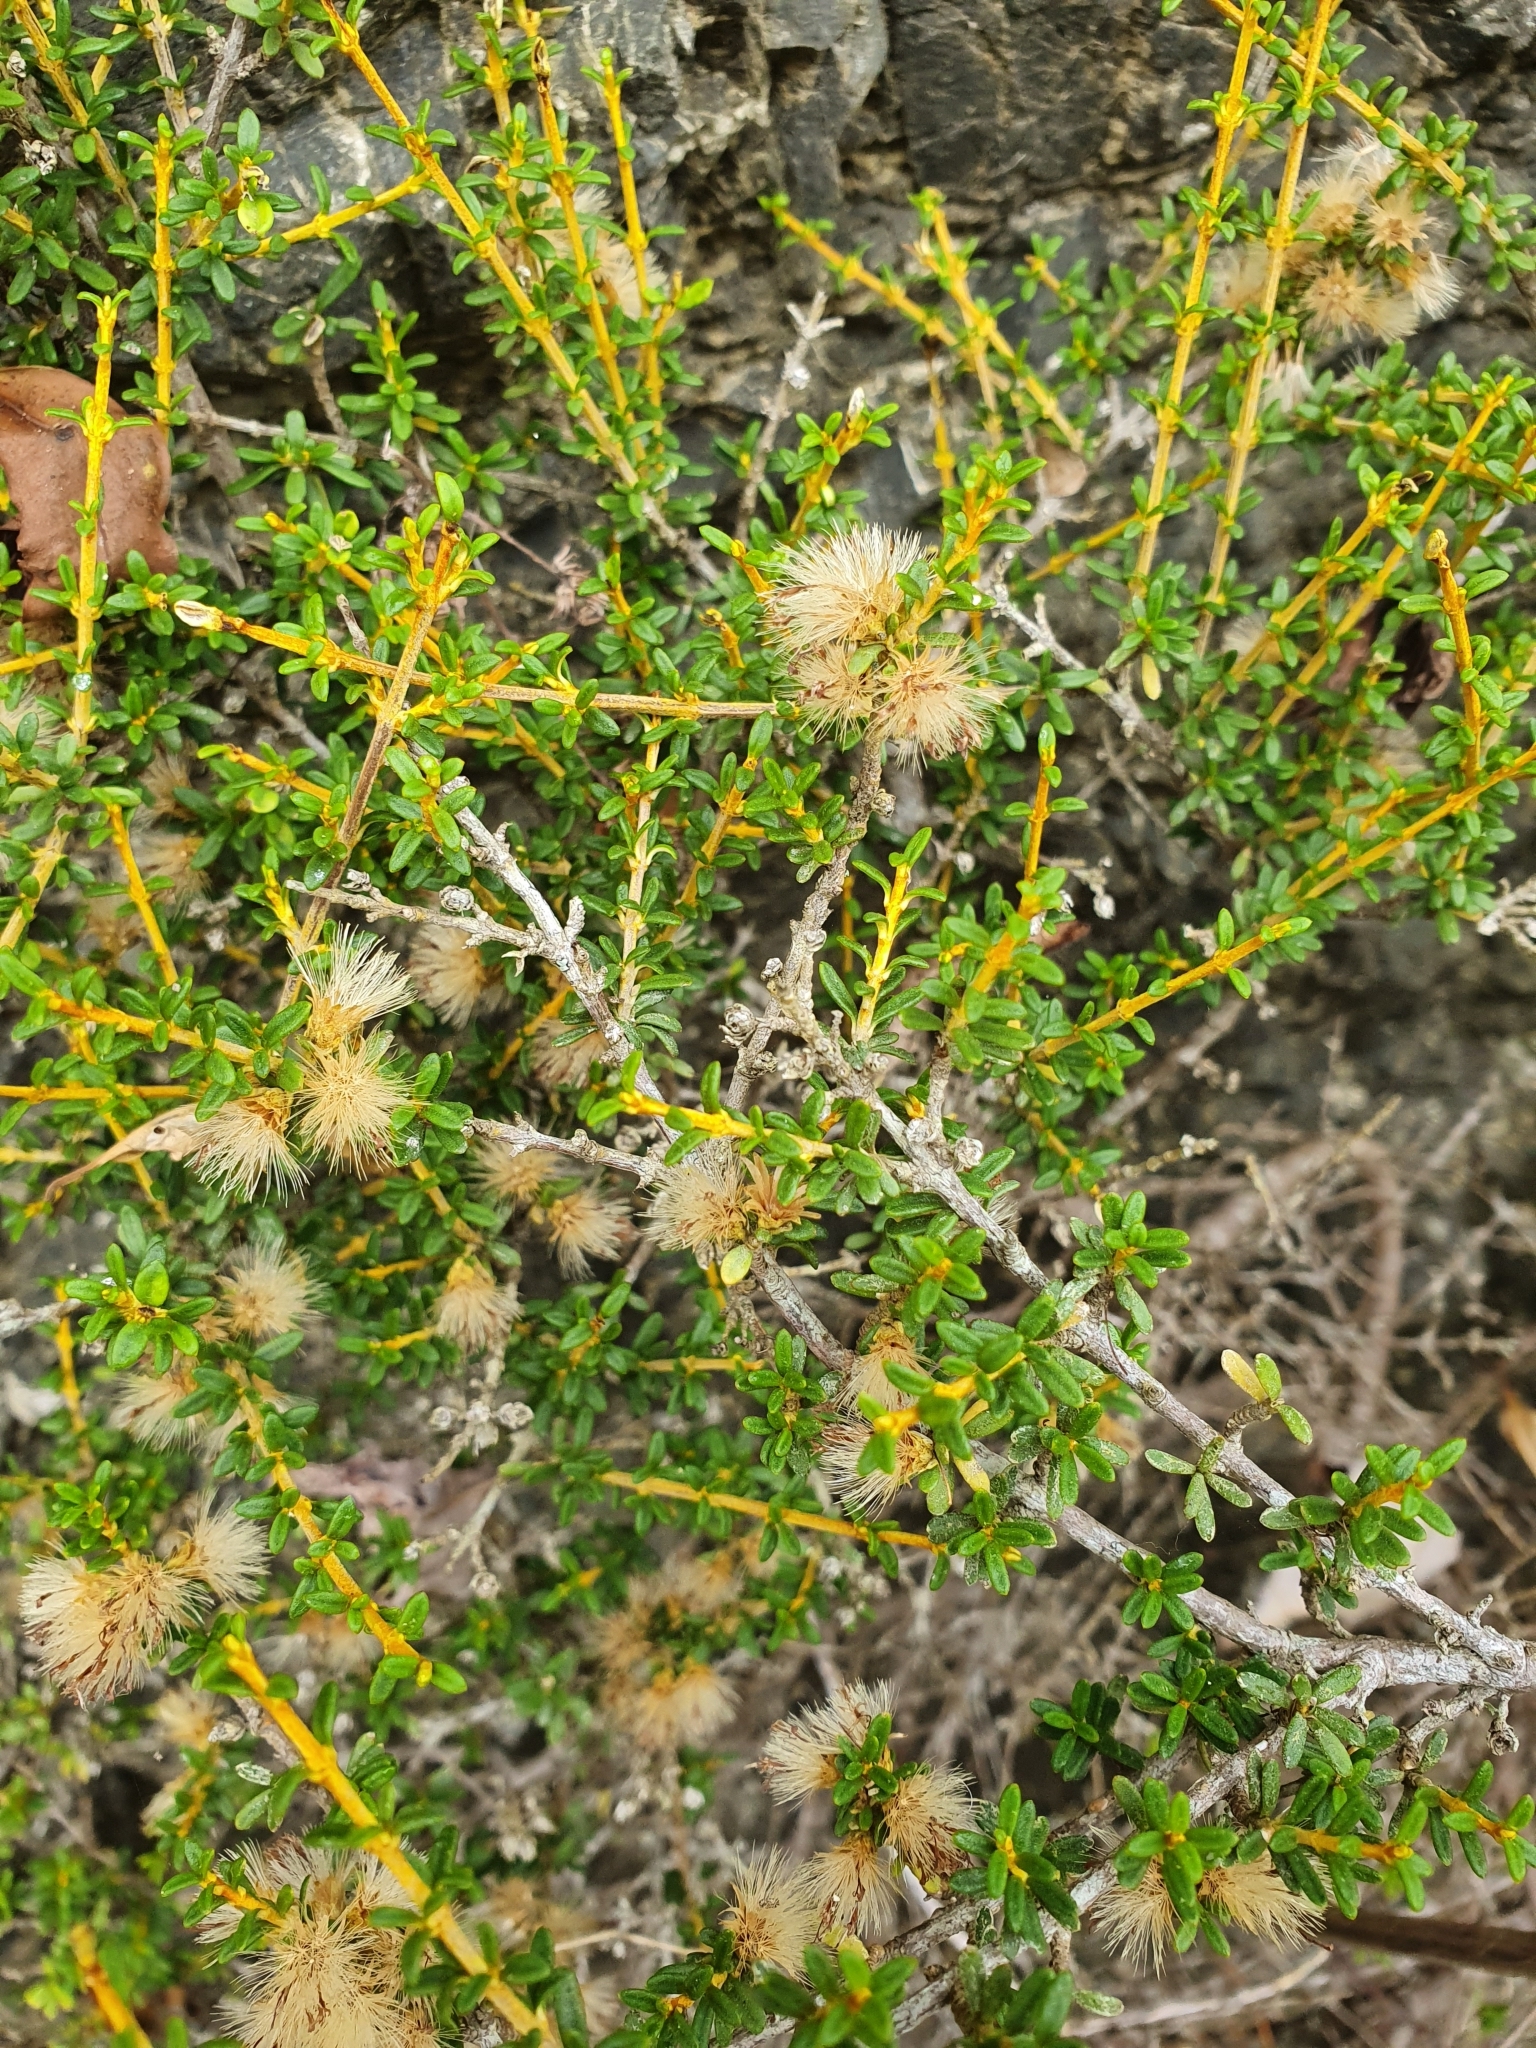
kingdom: Plantae
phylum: Tracheophyta
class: Magnoliopsida
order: Asterales
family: Asteraceae
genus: Olearia
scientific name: Olearia solandri
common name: Coastal daisybush
